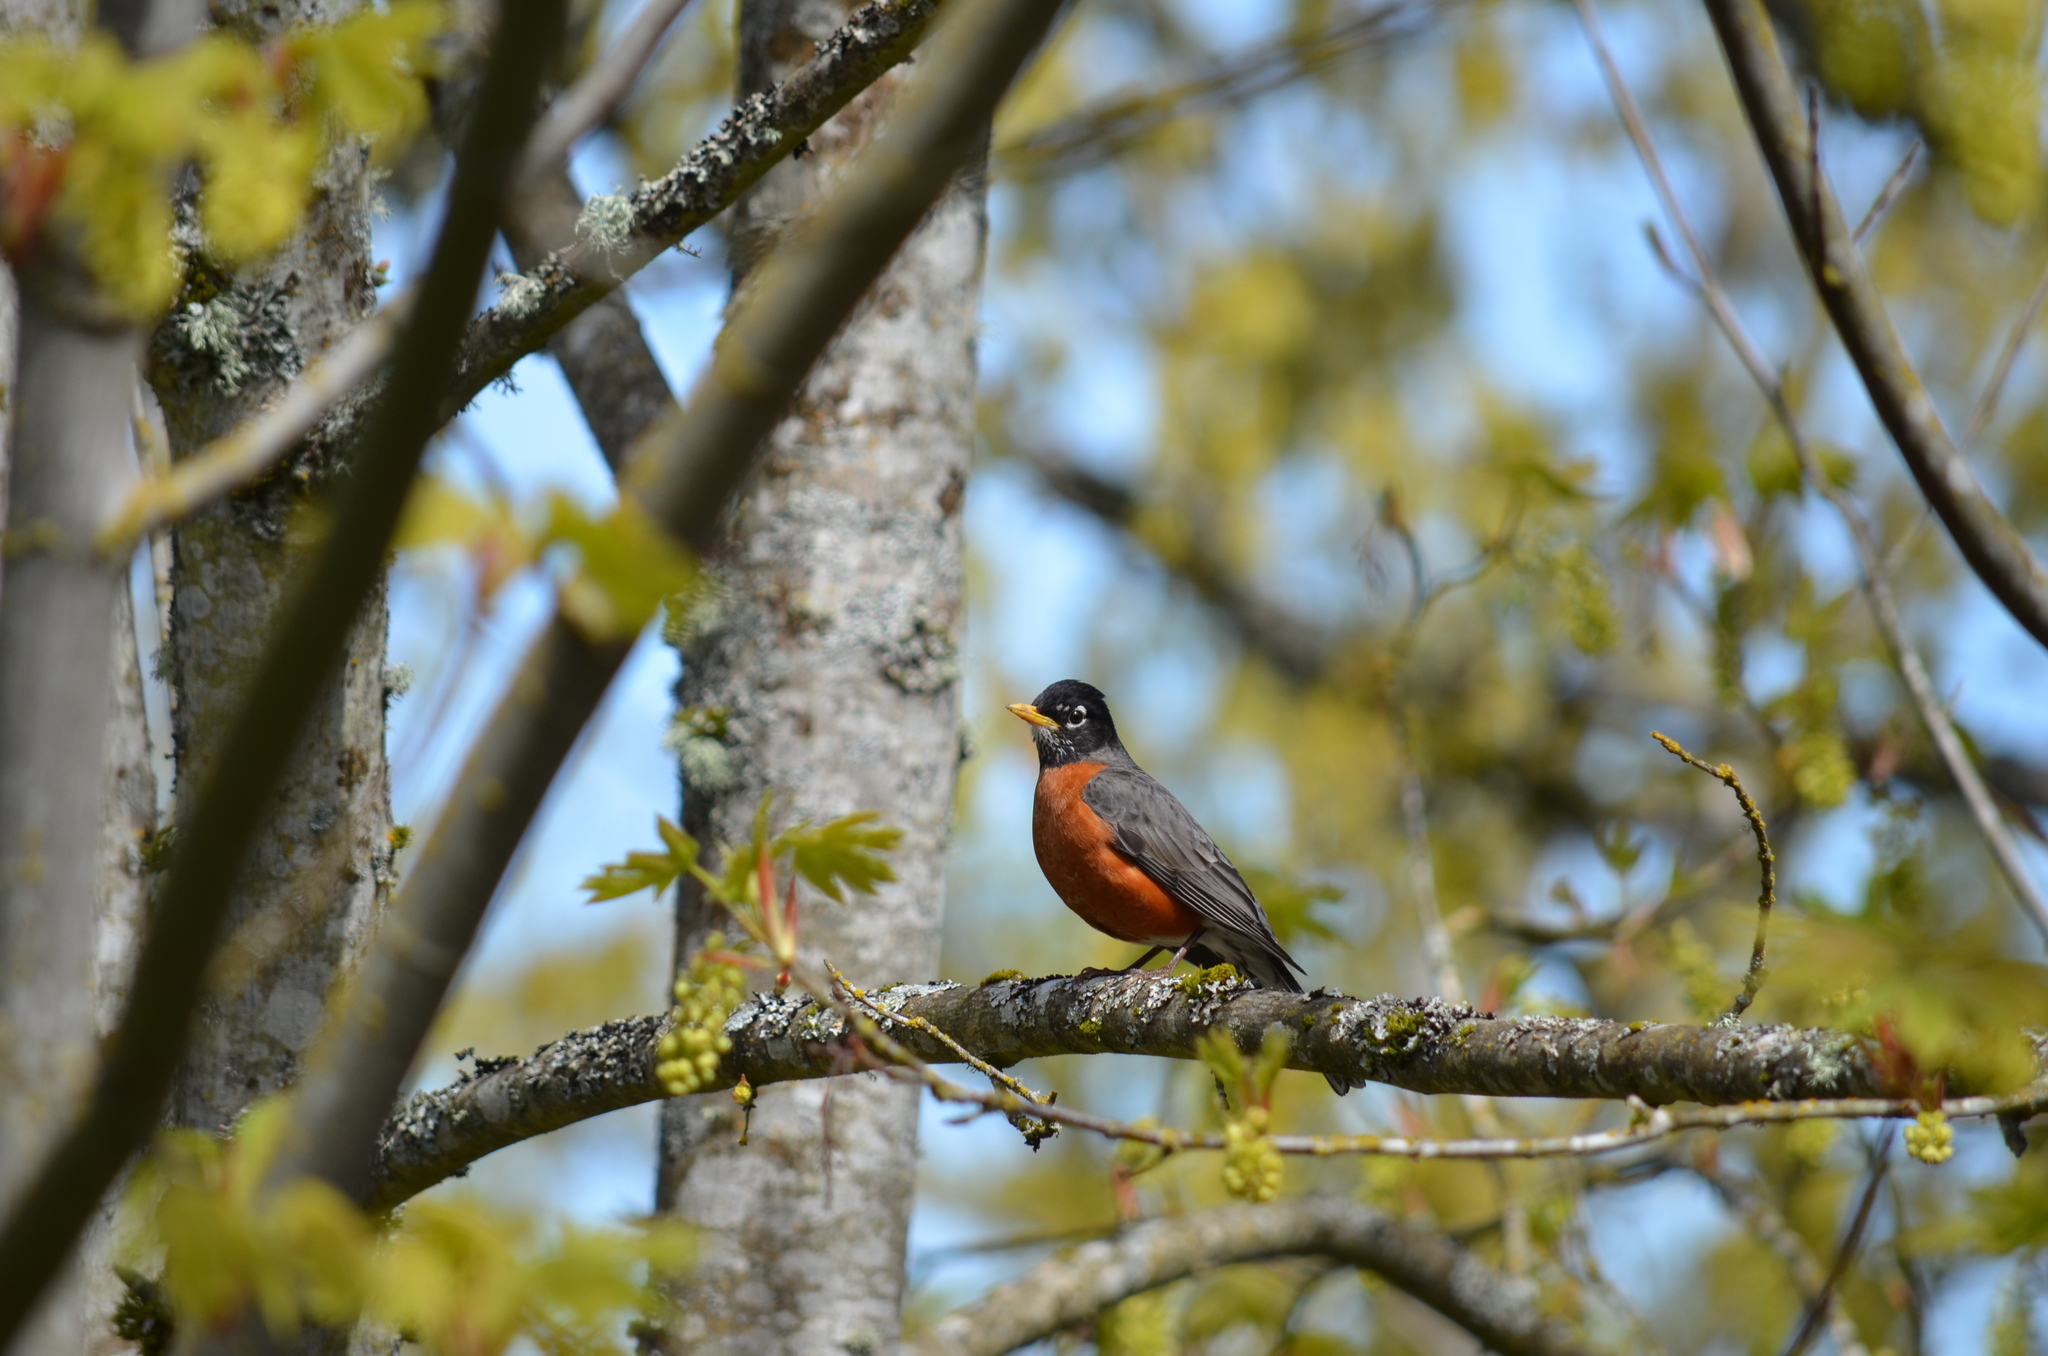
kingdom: Animalia
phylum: Chordata
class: Aves
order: Passeriformes
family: Turdidae
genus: Turdus
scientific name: Turdus migratorius
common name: American robin
